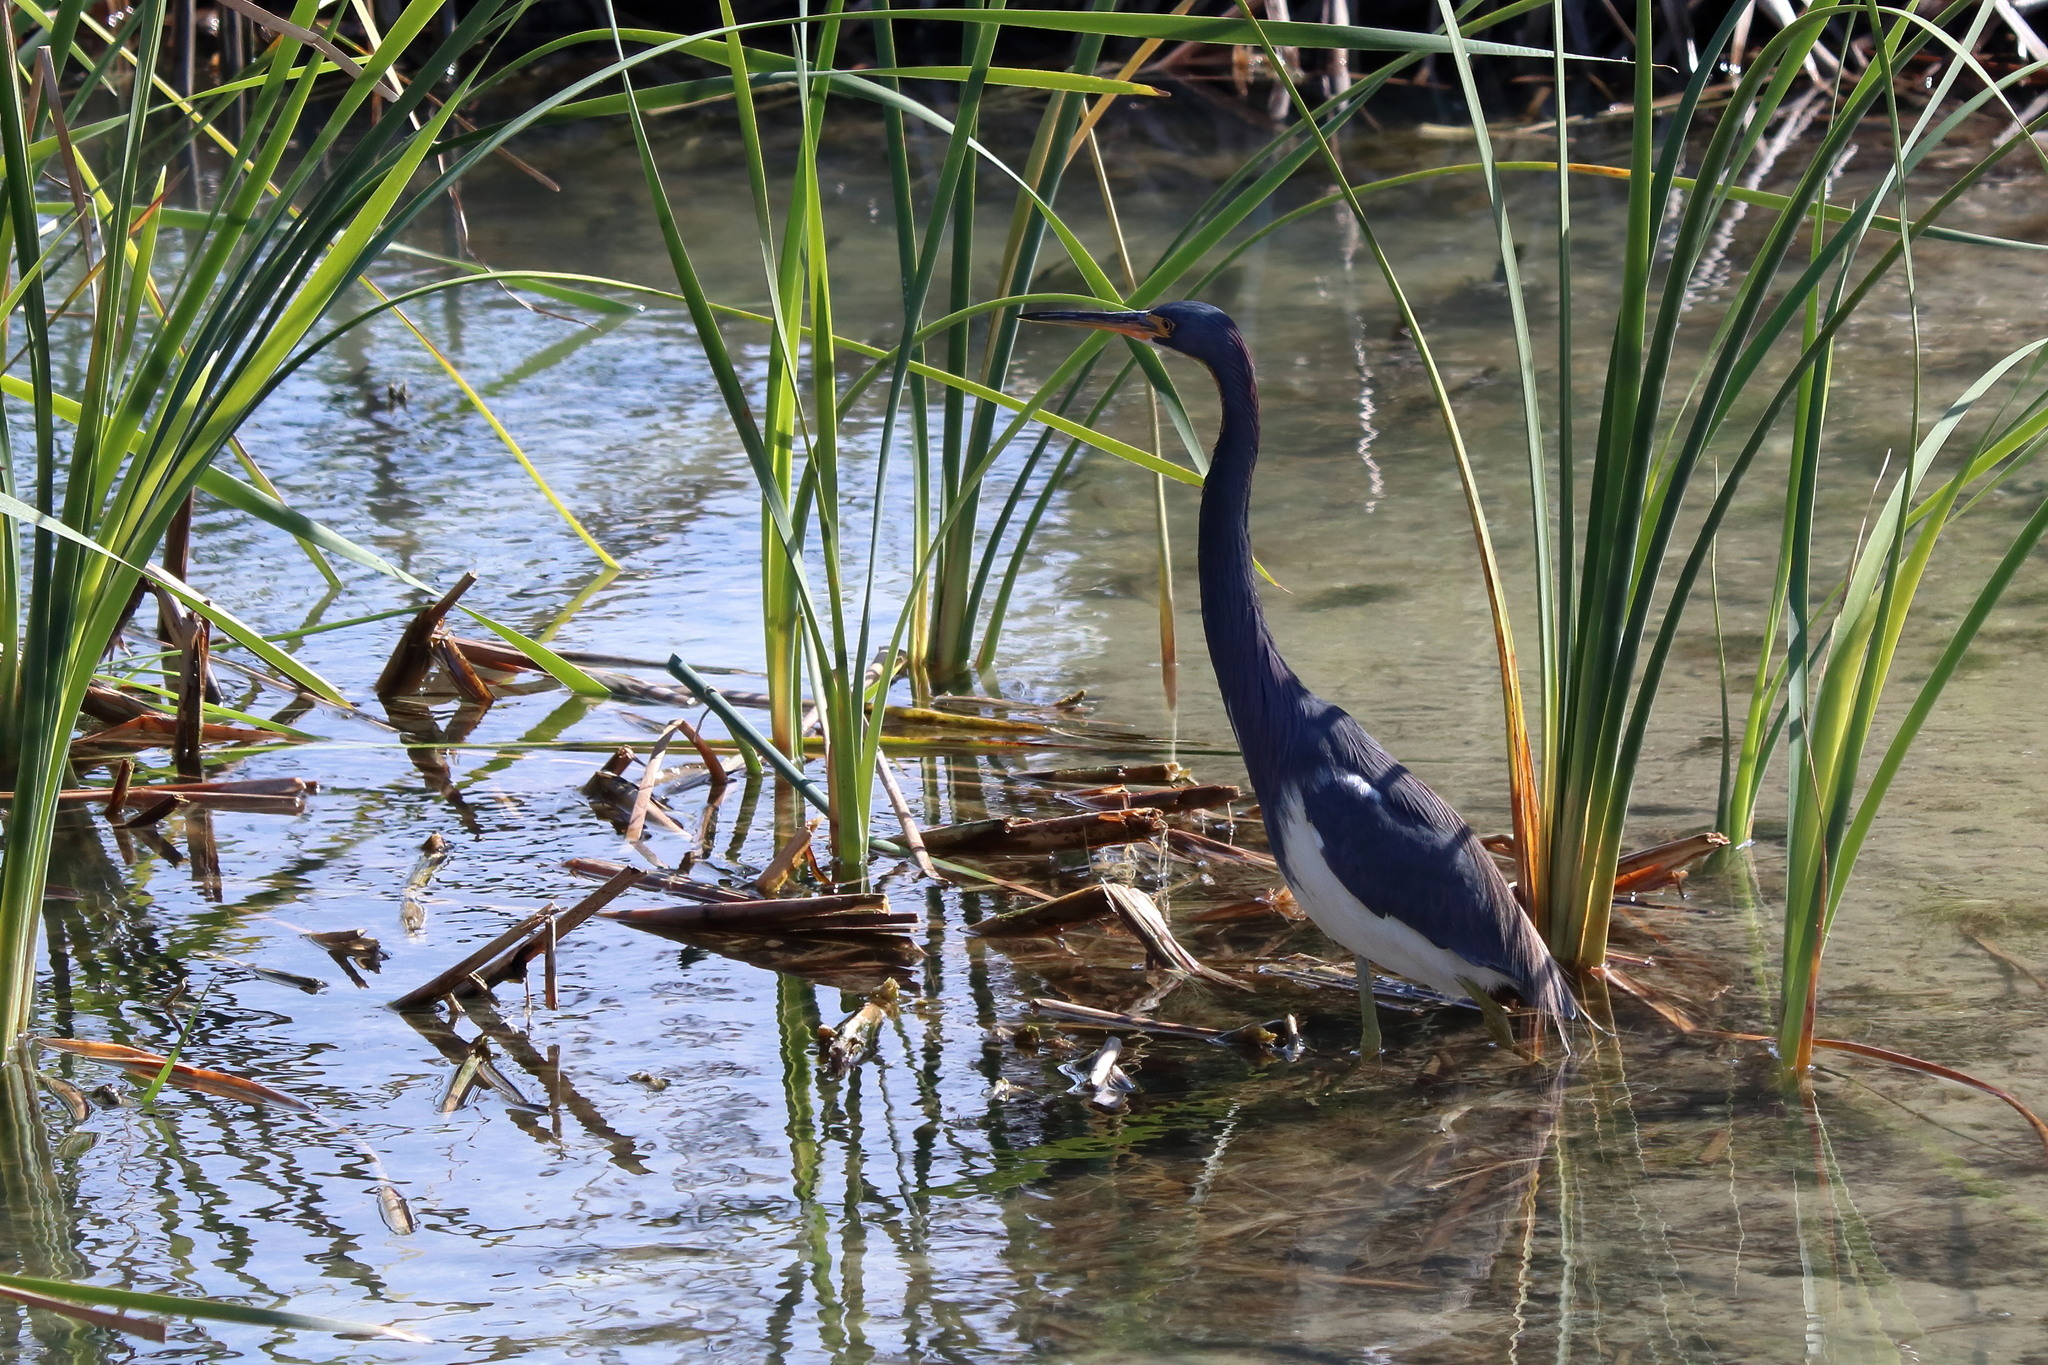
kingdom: Animalia
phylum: Chordata
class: Aves
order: Pelecaniformes
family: Ardeidae
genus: Egretta
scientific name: Egretta tricolor
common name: Tricolored heron
